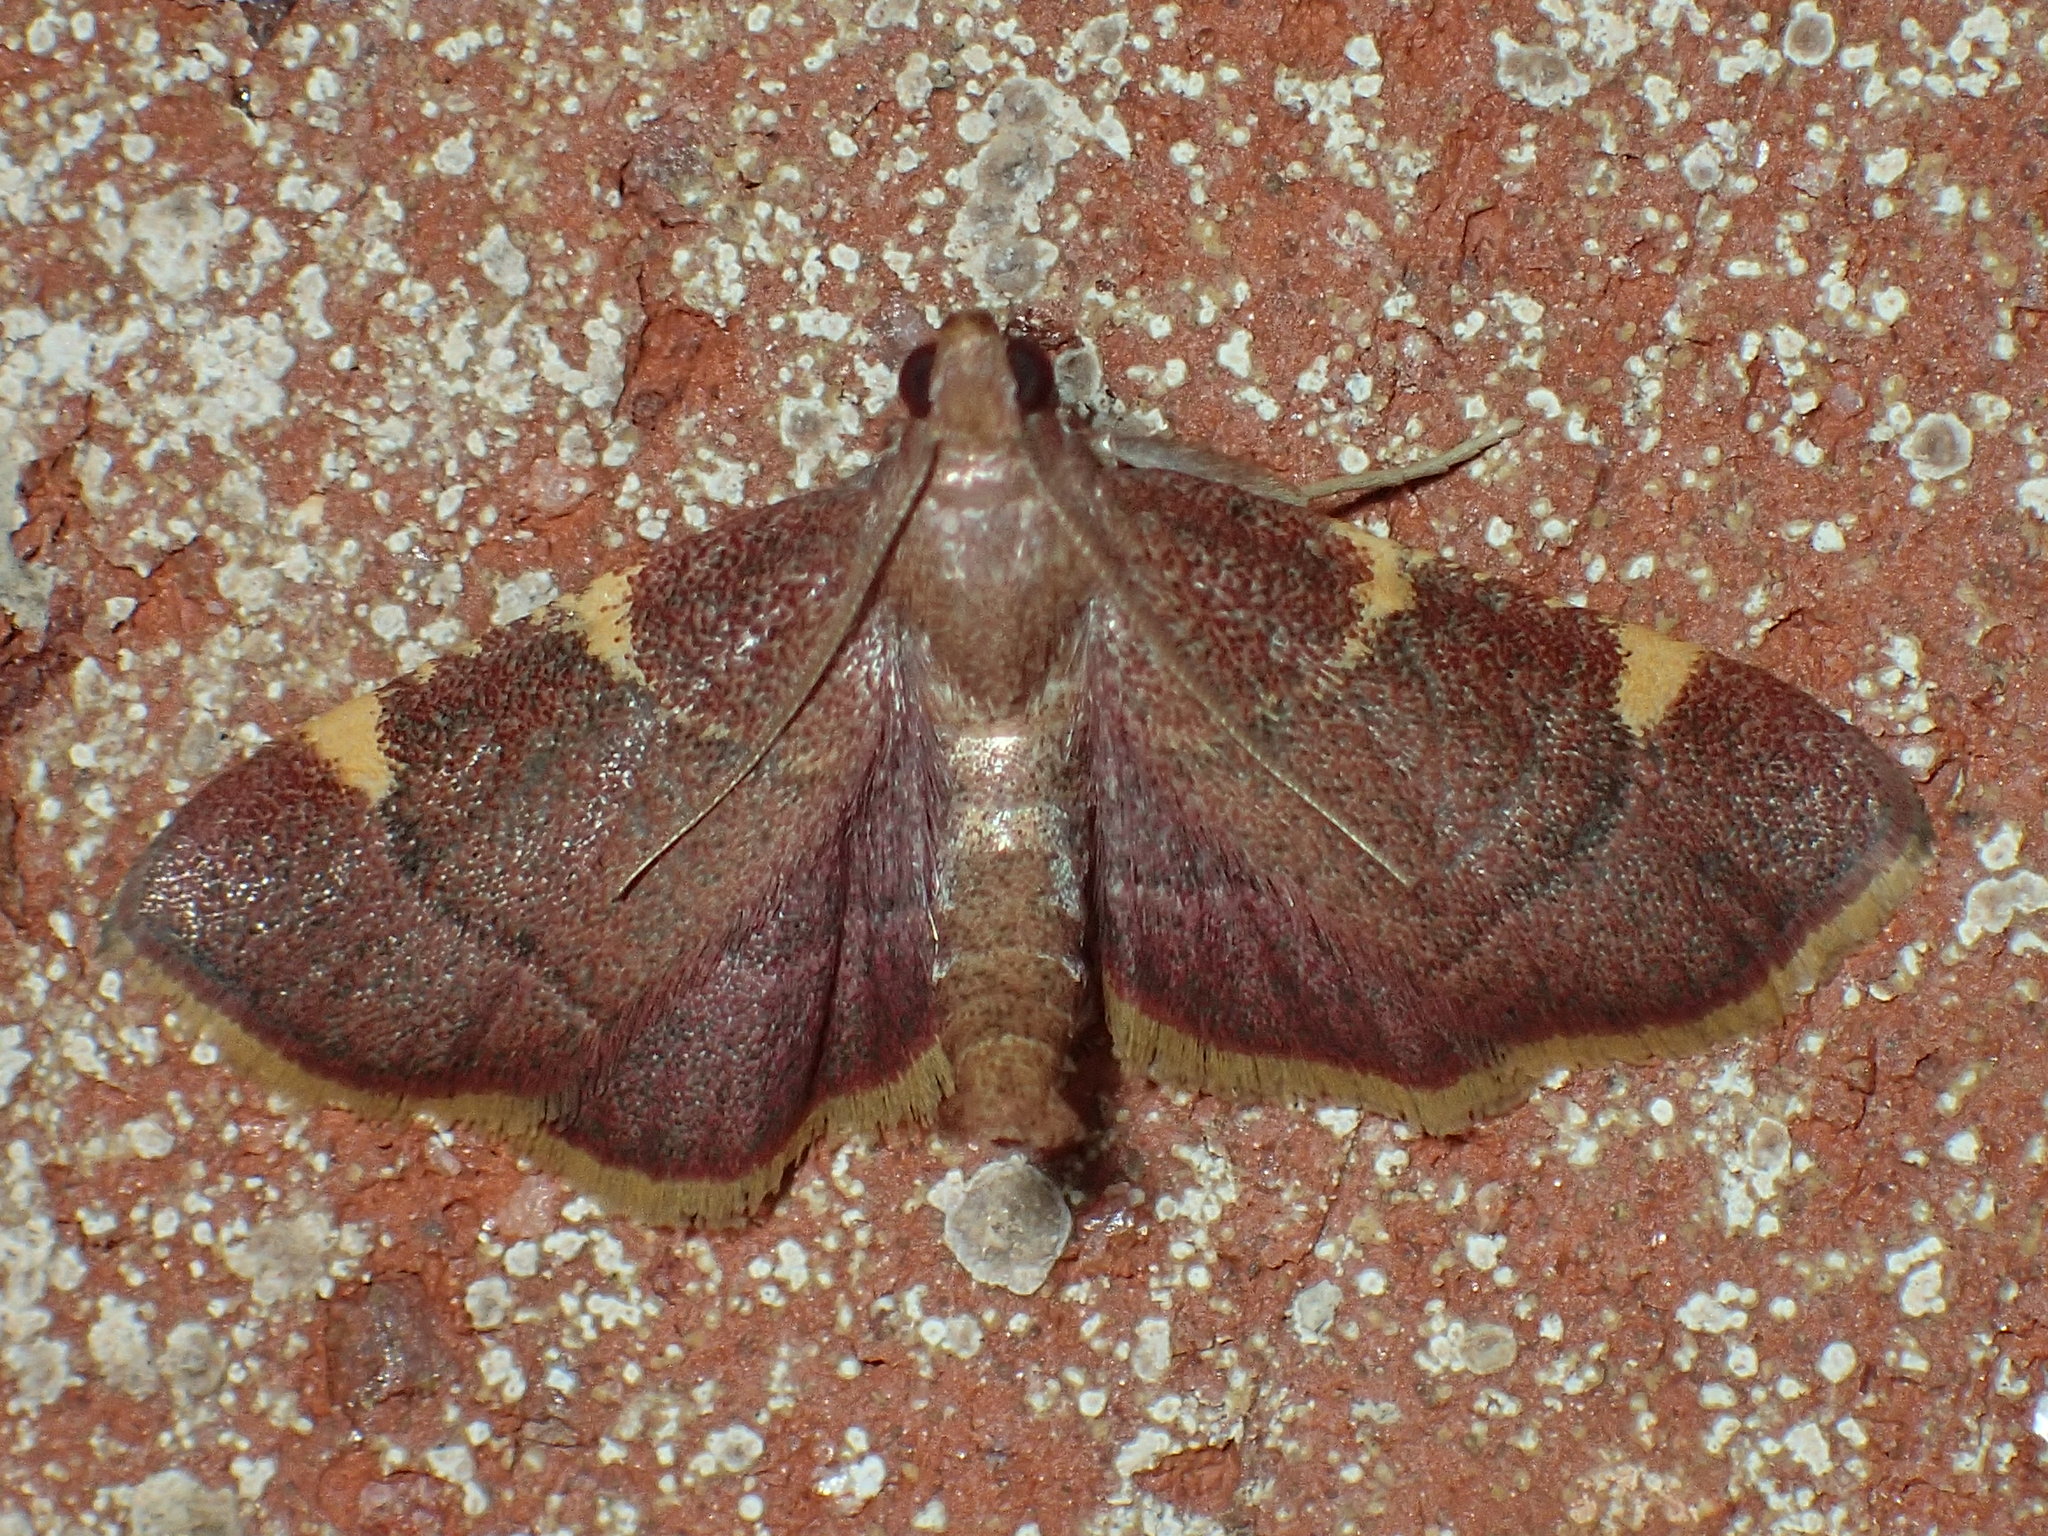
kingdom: Animalia
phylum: Arthropoda
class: Insecta
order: Lepidoptera
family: Pyralidae
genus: Hypsopygia
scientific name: Hypsopygia olinalis
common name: Yellow-fringed dolichomia moth
